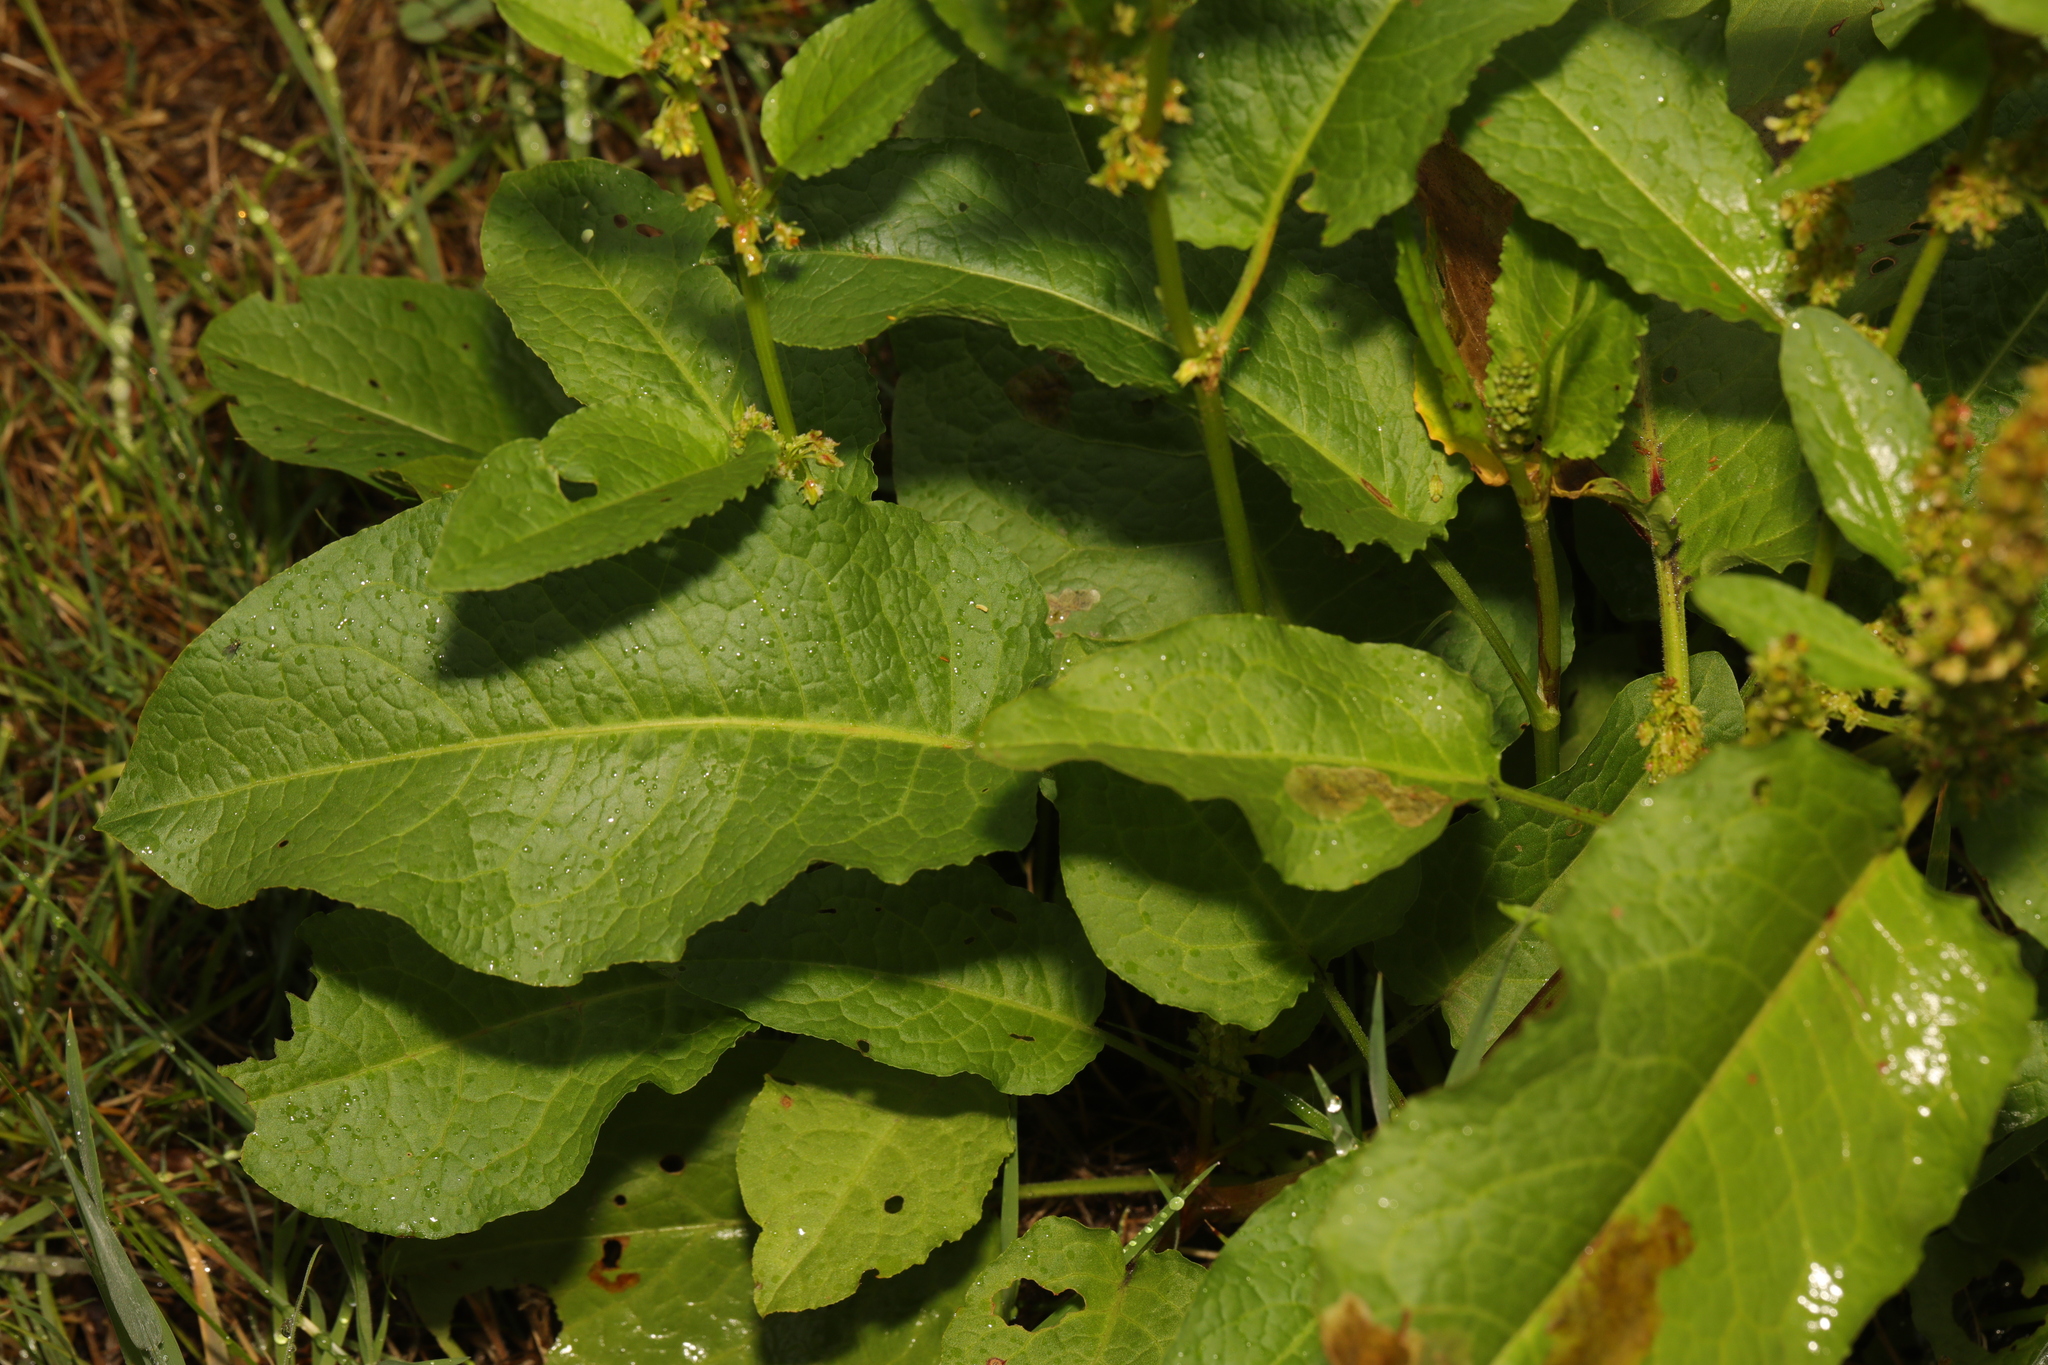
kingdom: Plantae
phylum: Tracheophyta
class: Magnoliopsida
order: Caryophyllales
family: Polygonaceae
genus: Rumex
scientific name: Rumex obtusifolius
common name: Bitter dock
